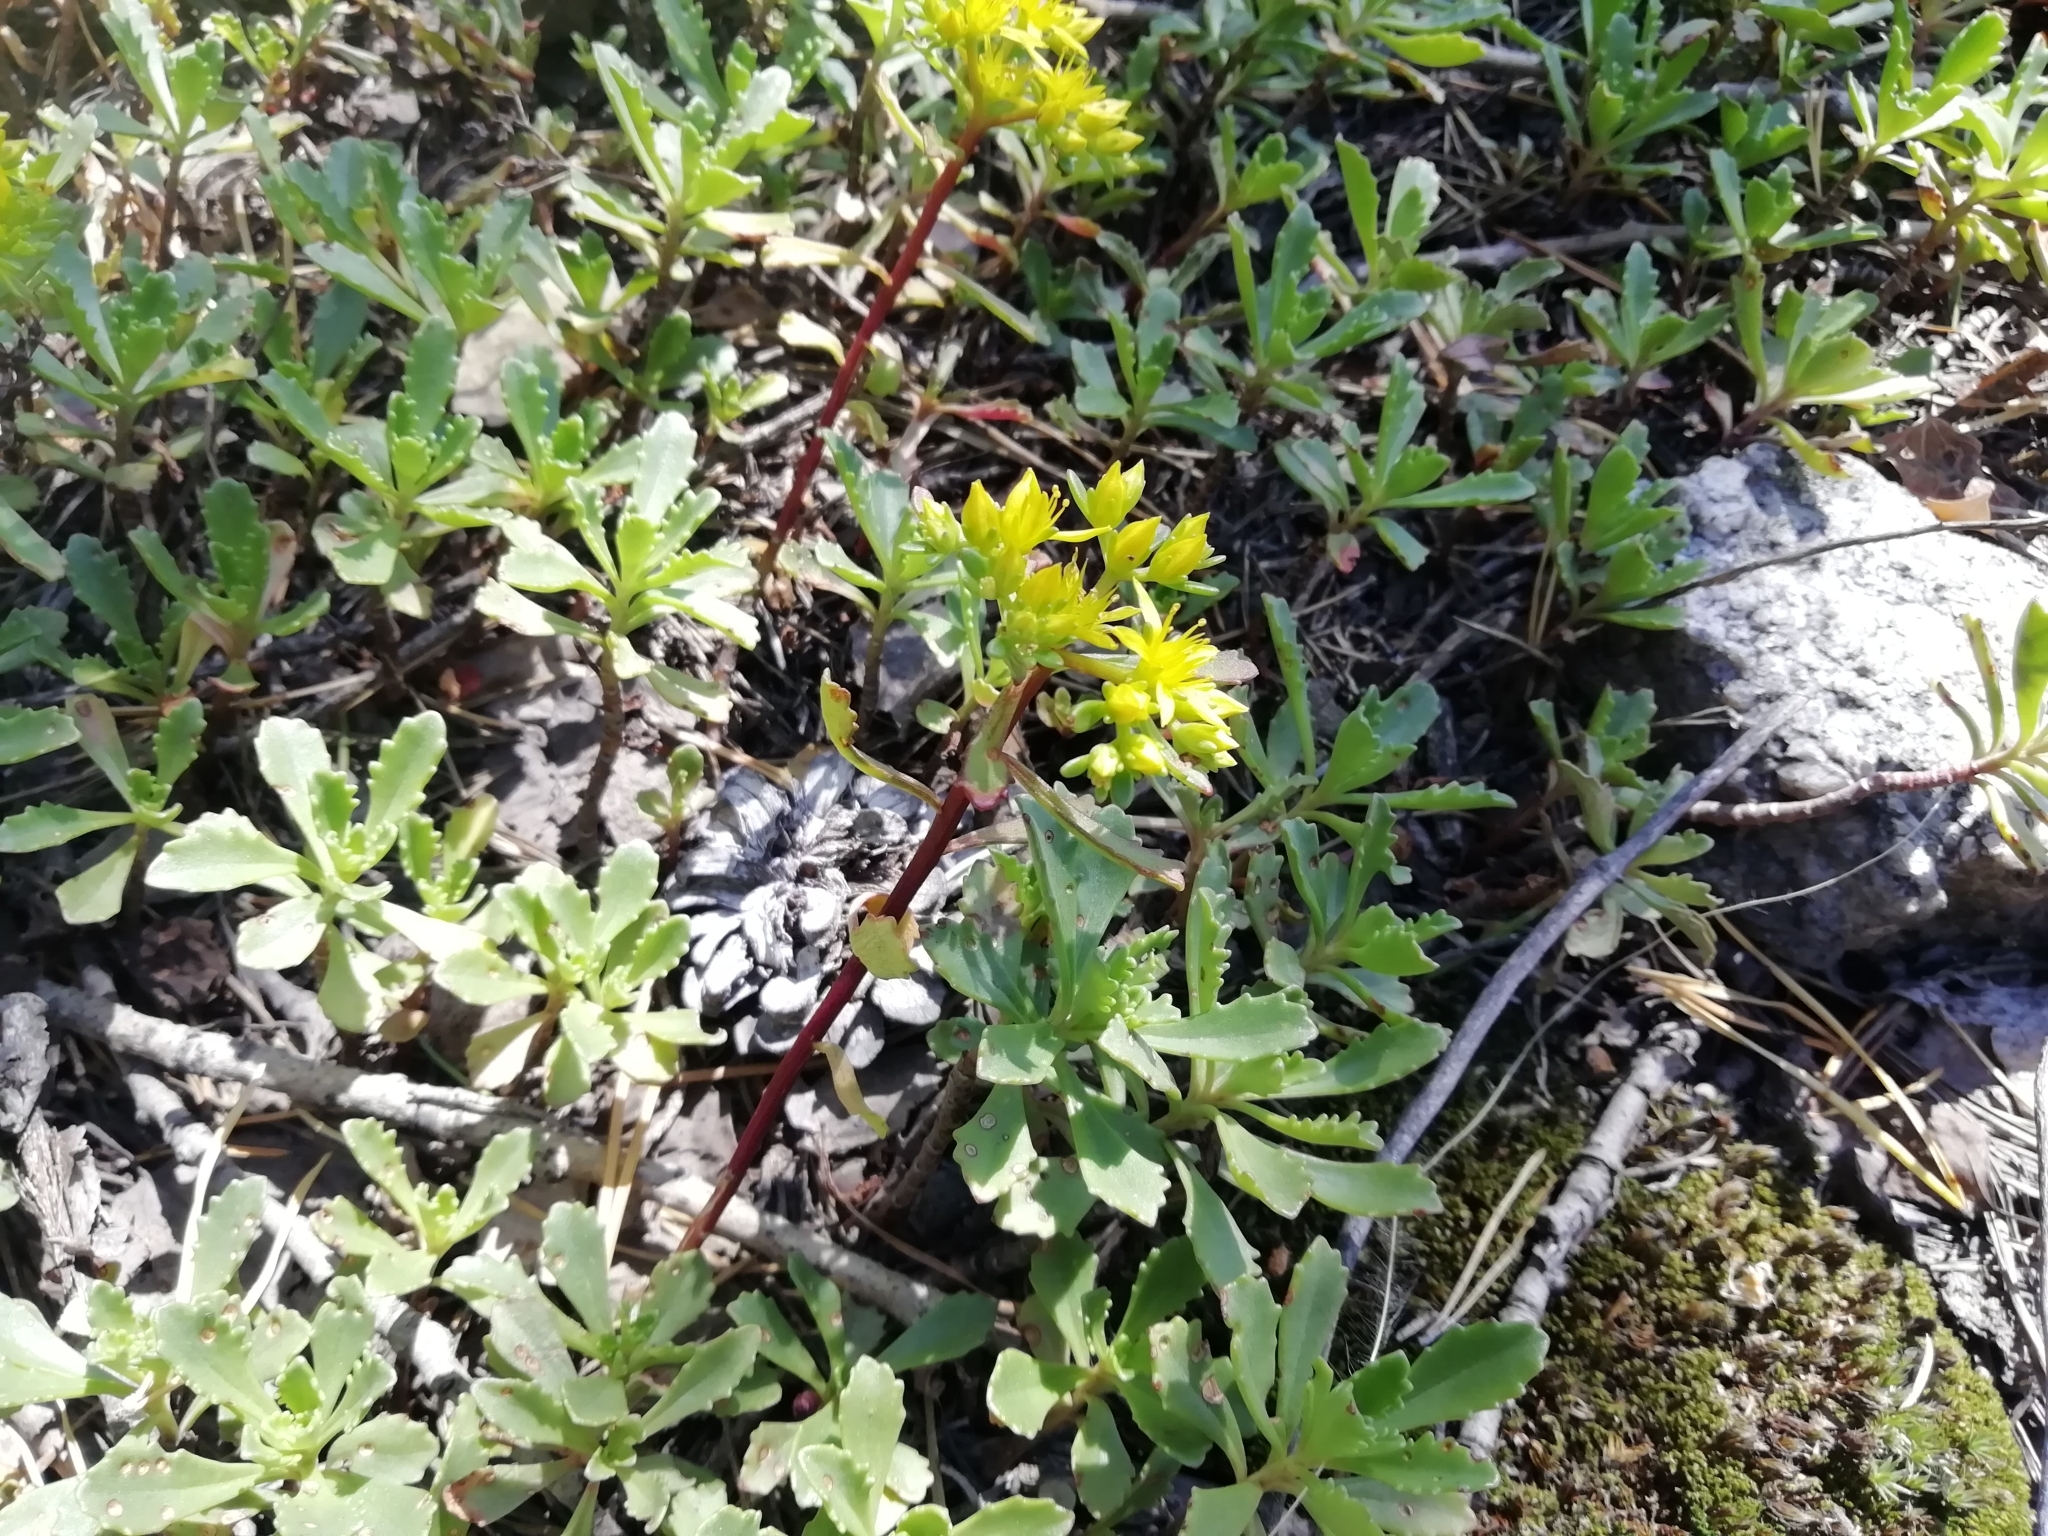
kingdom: Plantae
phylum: Tracheophyta
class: Magnoliopsida
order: Saxifragales
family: Crassulaceae
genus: Phedimus
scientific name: Phedimus hybridus
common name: Hybrid stonecrop
